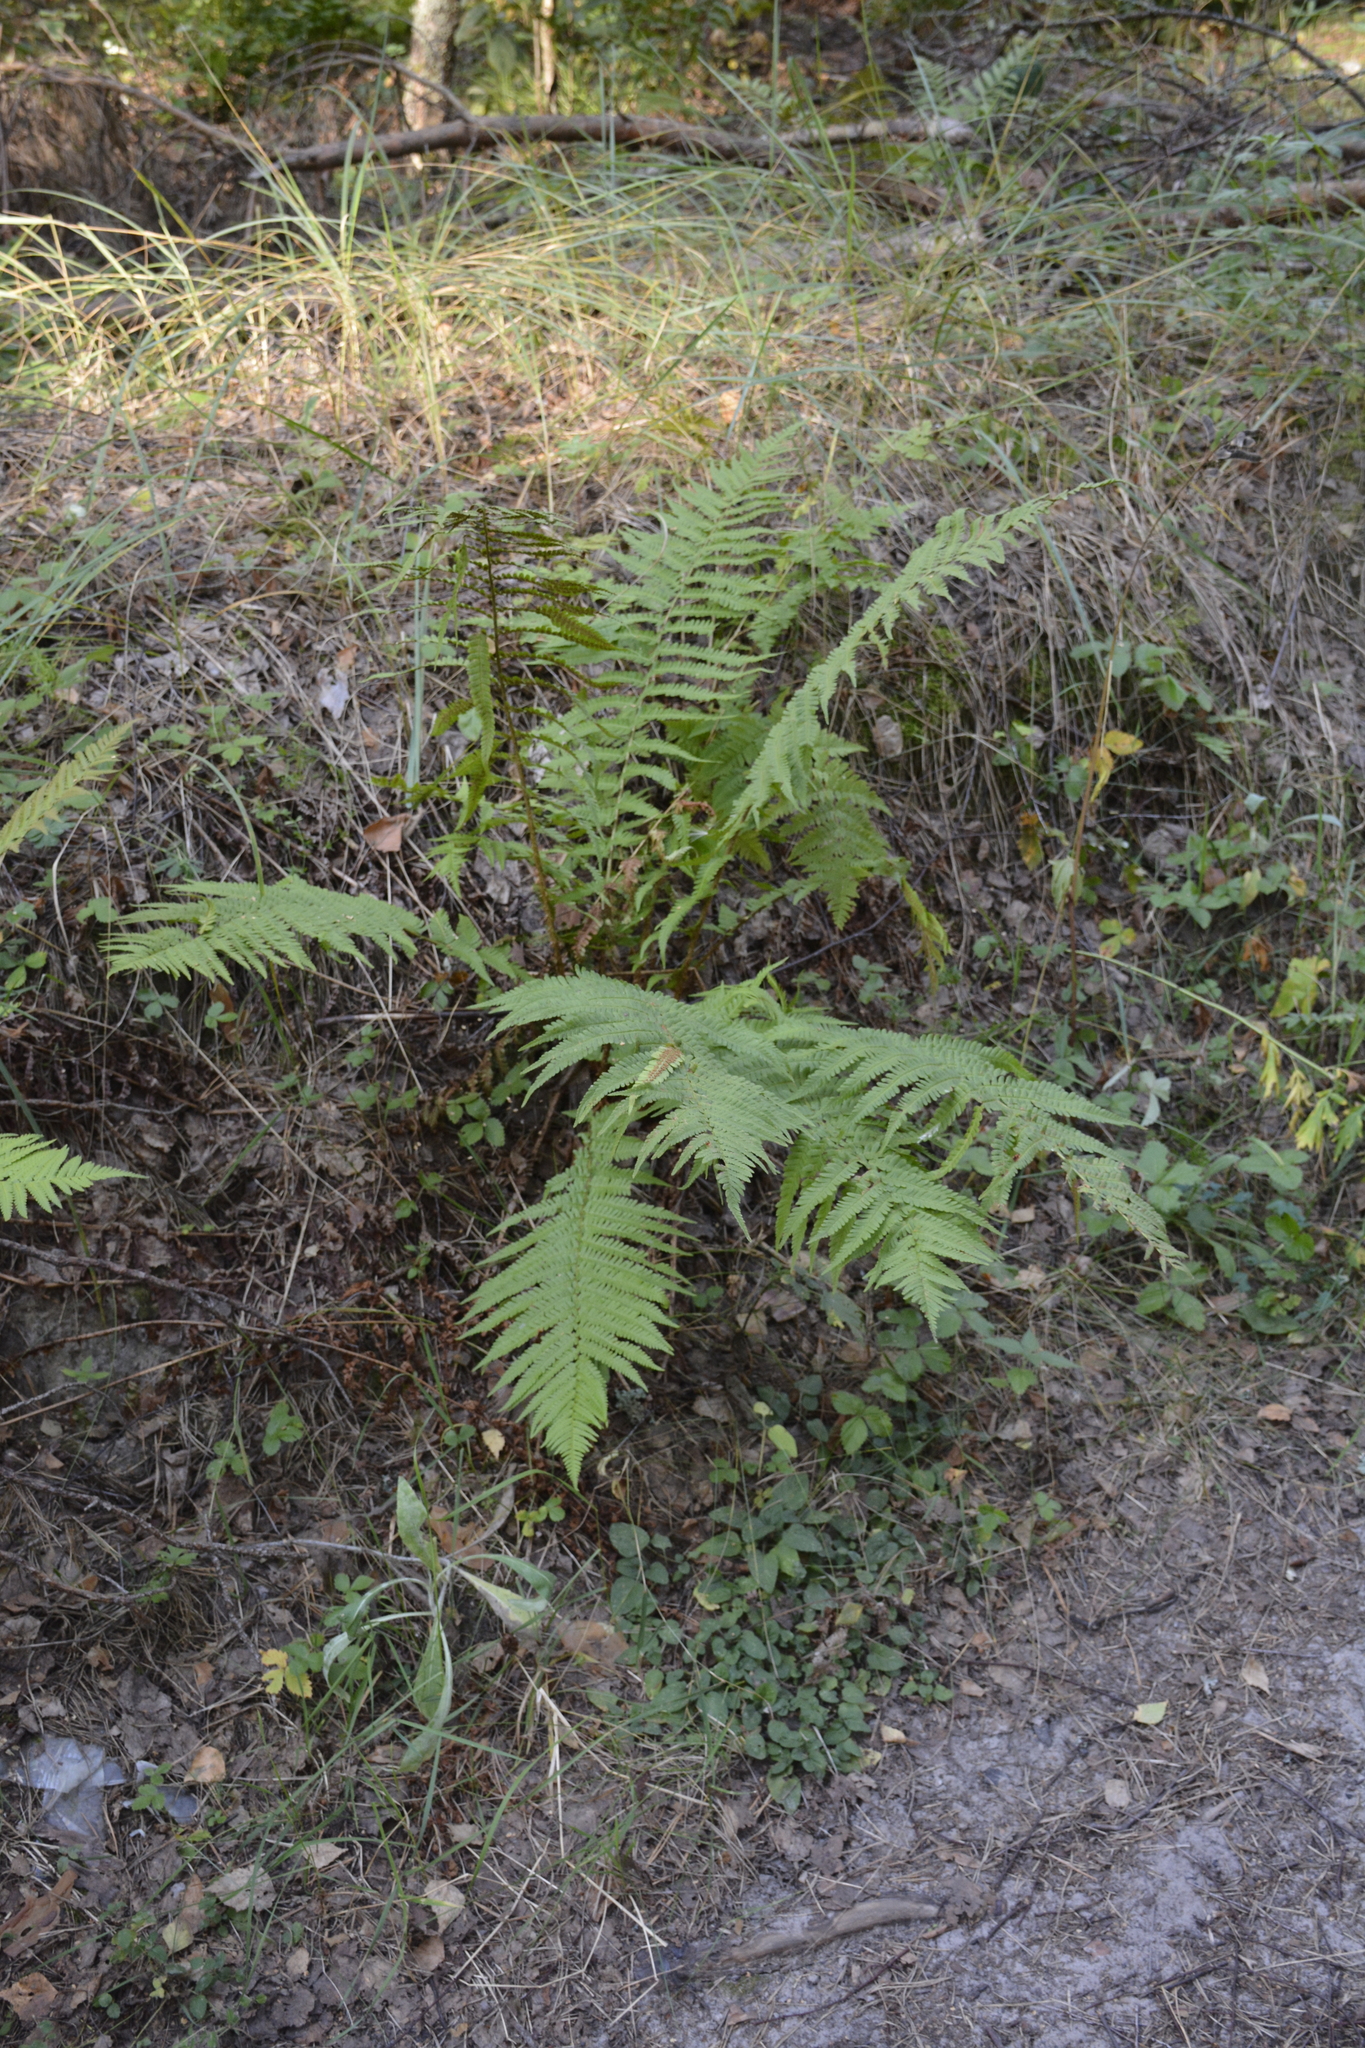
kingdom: Plantae
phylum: Tracheophyta
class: Polypodiopsida
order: Polypodiales
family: Dryopteridaceae
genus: Dryopteris
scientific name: Dryopteris filix-mas
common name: Male fern
